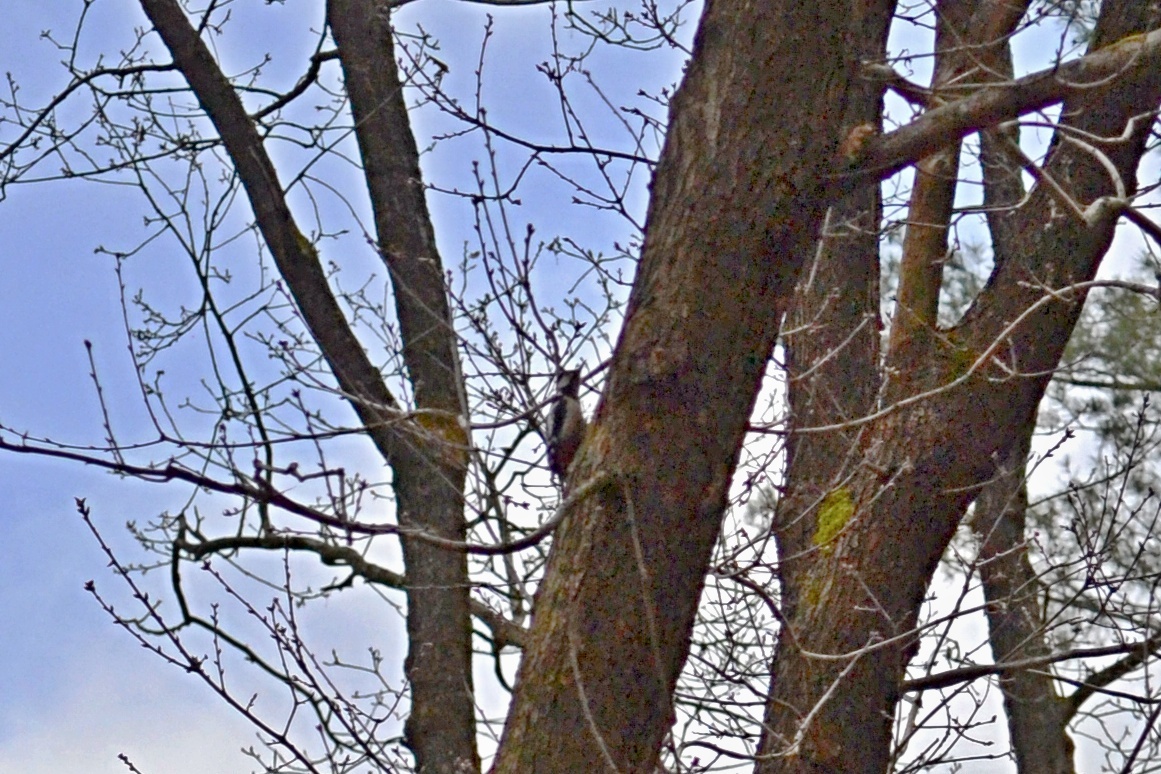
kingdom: Animalia
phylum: Chordata
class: Aves
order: Piciformes
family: Picidae
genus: Dendrocopos
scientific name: Dendrocopos major
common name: Great spotted woodpecker
